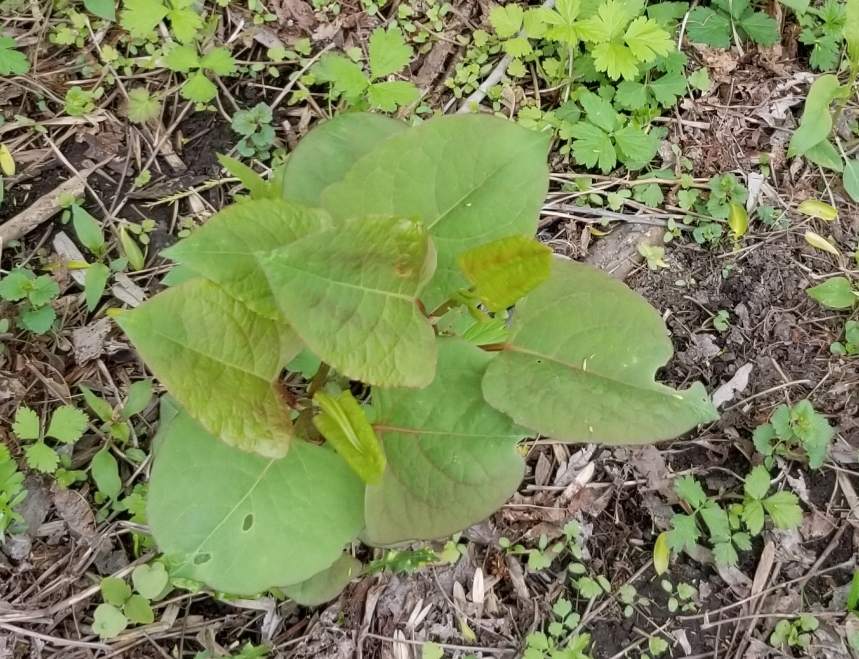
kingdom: Plantae
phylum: Tracheophyta
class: Magnoliopsida
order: Caryophyllales
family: Polygonaceae
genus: Reynoutria
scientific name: Reynoutria japonica
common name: Japanese knotweed
